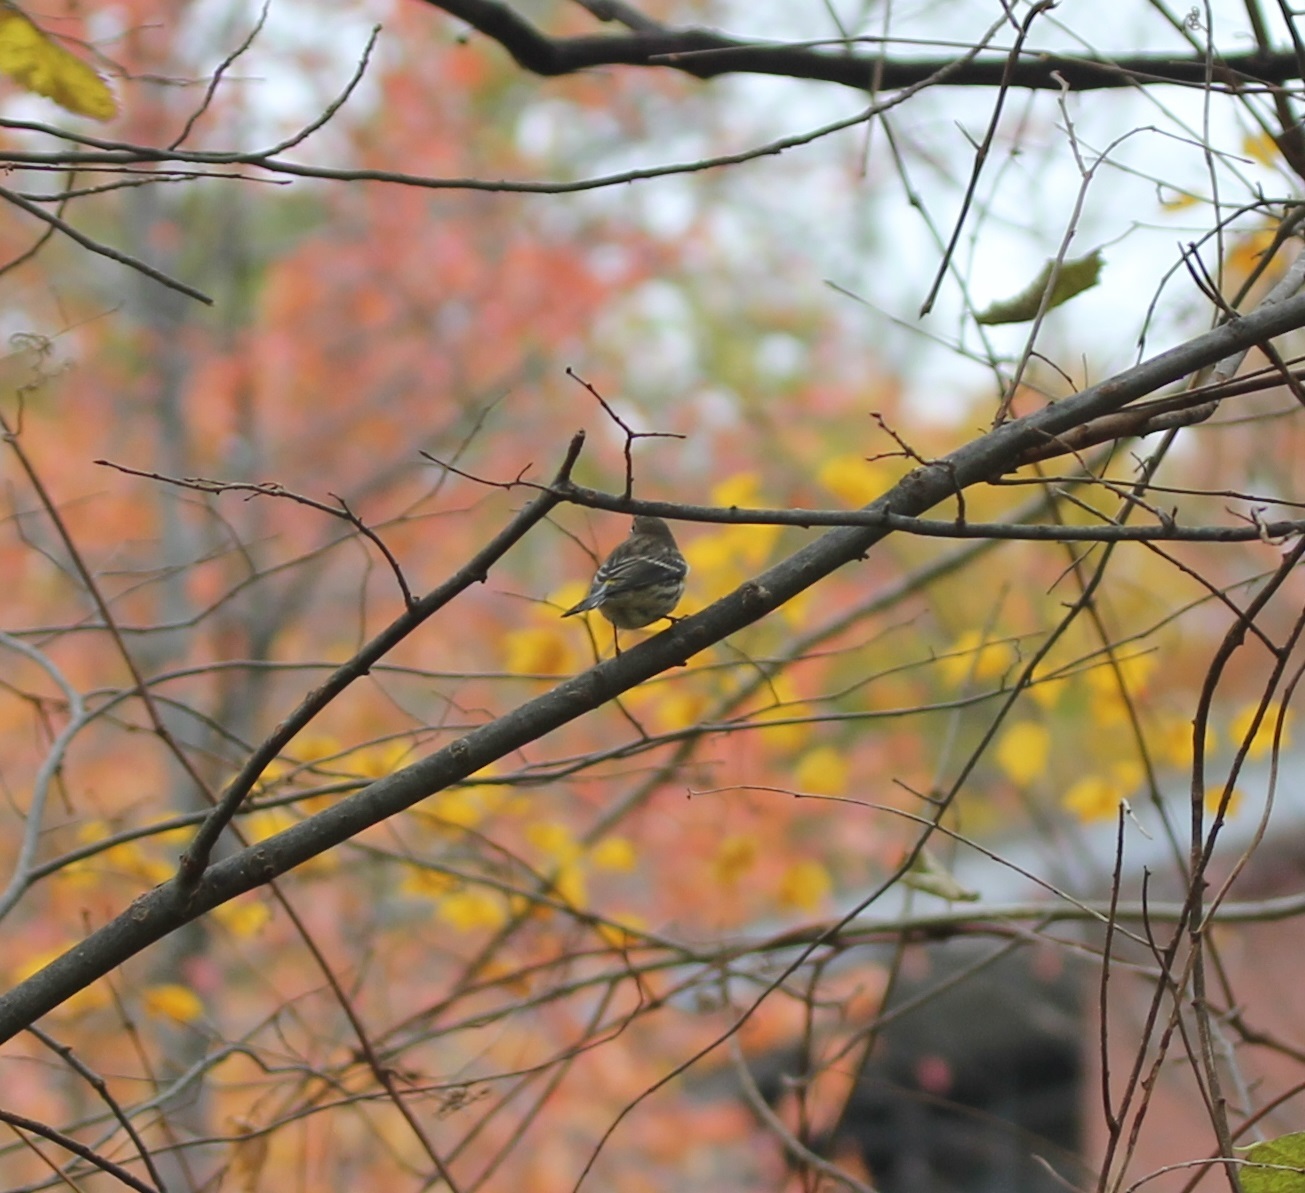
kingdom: Animalia
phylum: Chordata
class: Aves
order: Passeriformes
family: Parulidae
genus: Setophaga
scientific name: Setophaga coronata
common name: Myrtle warbler
